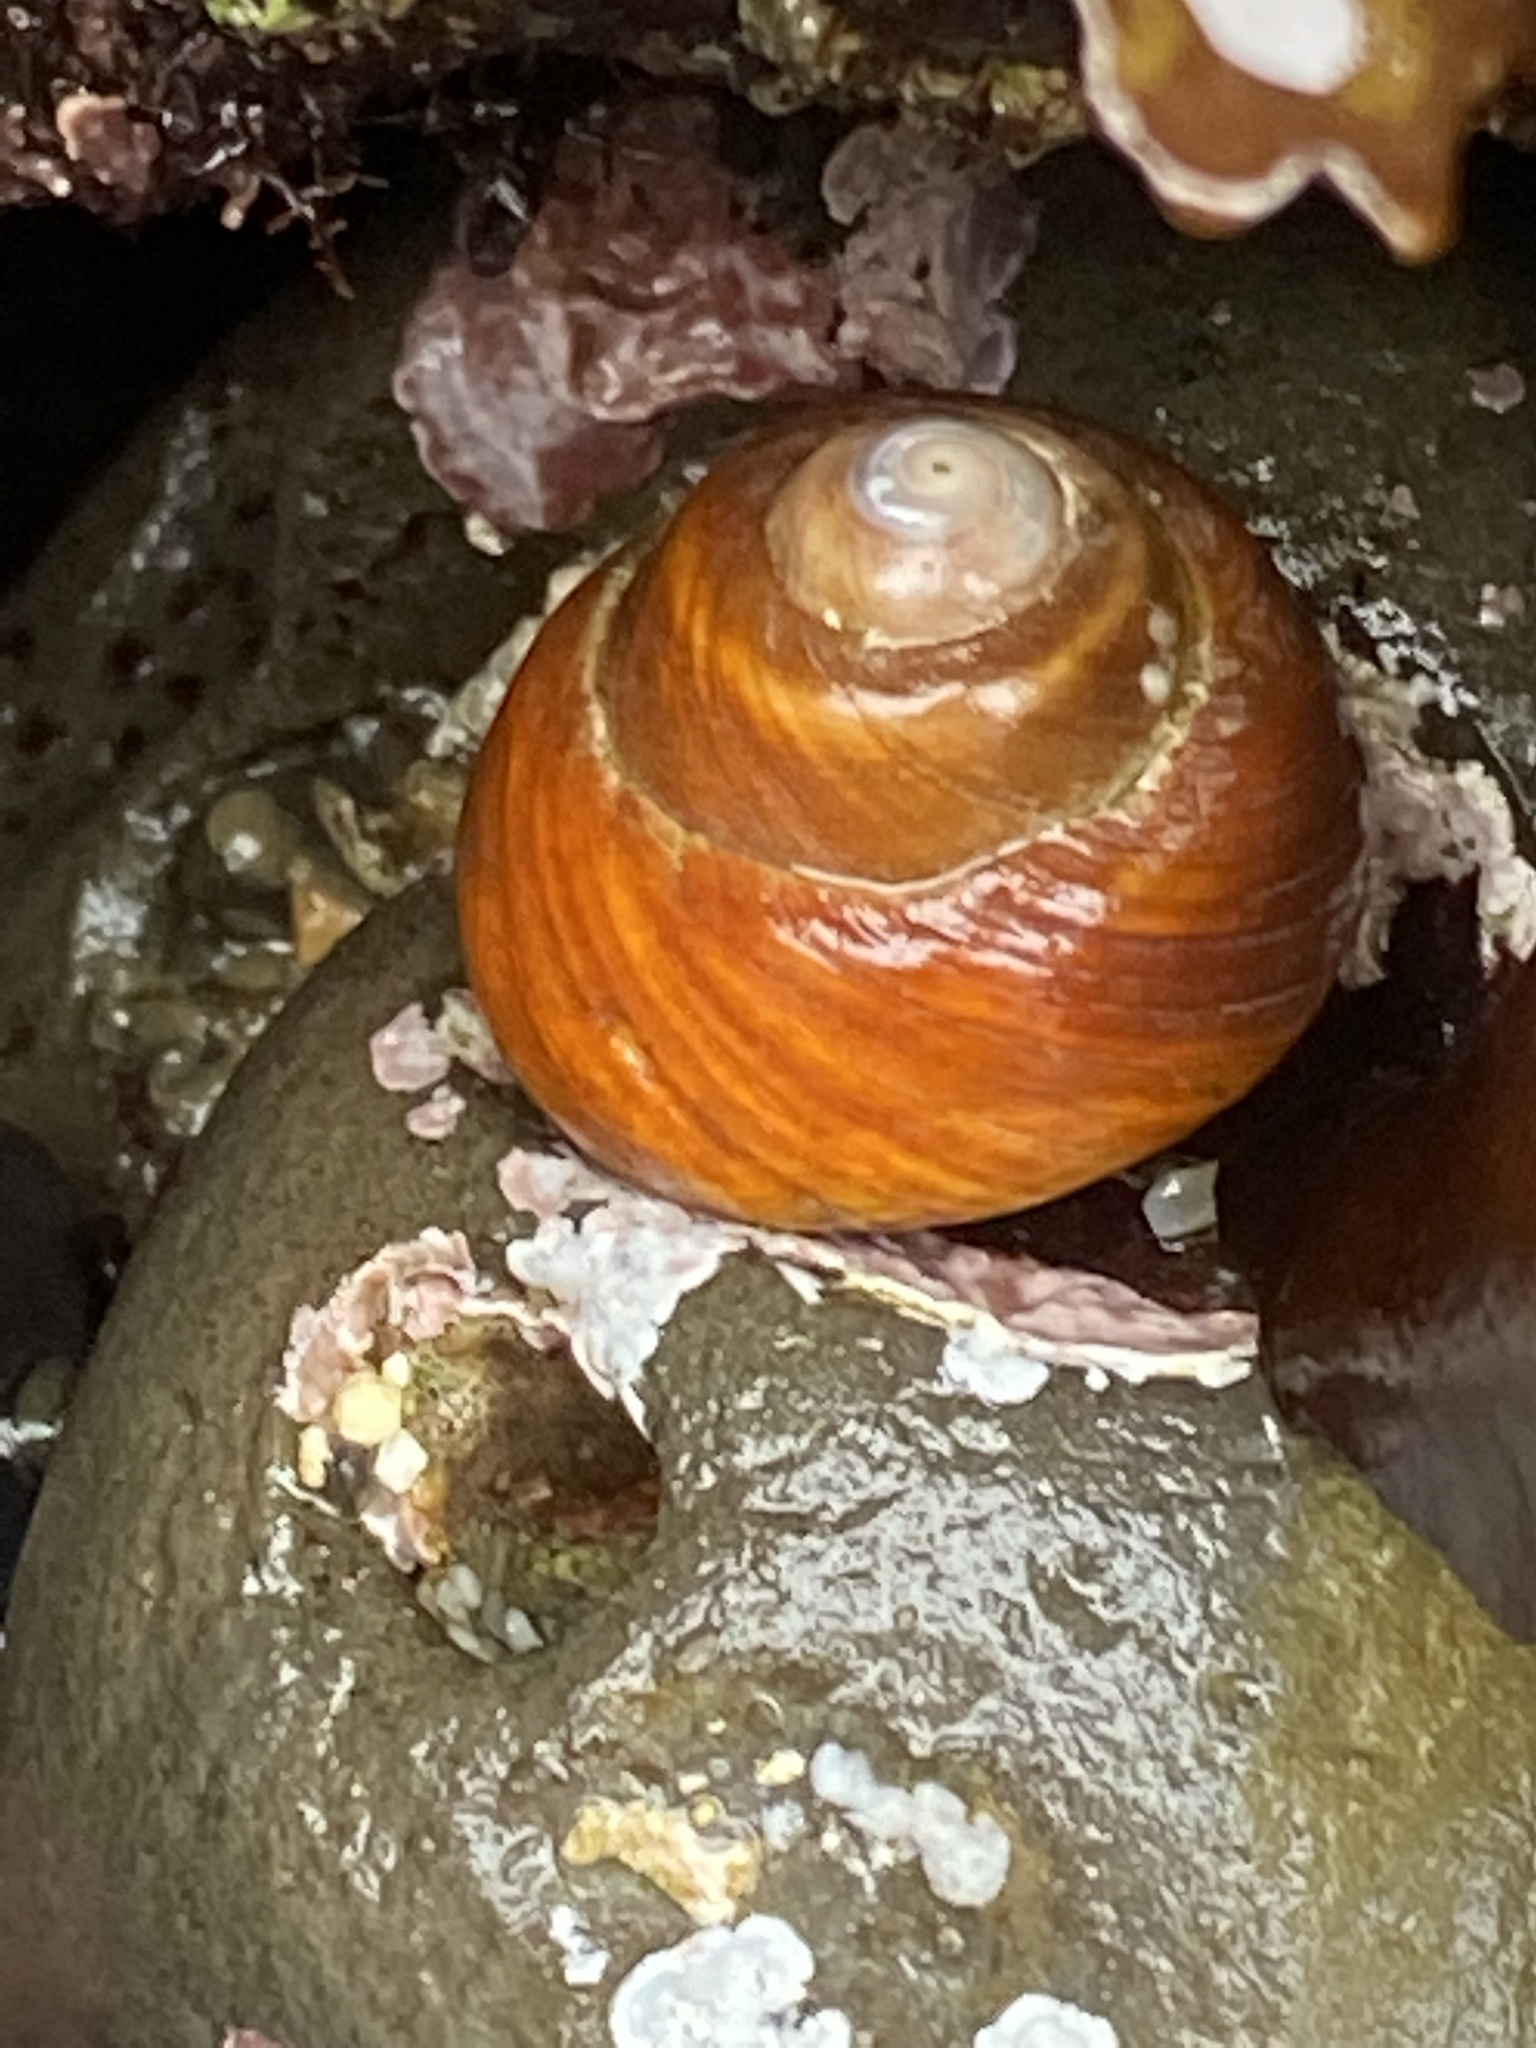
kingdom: Animalia
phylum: Mollusca
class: Gastropoda
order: Trochida
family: Tegulidae
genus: Tegula
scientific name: Tegula brunnea
